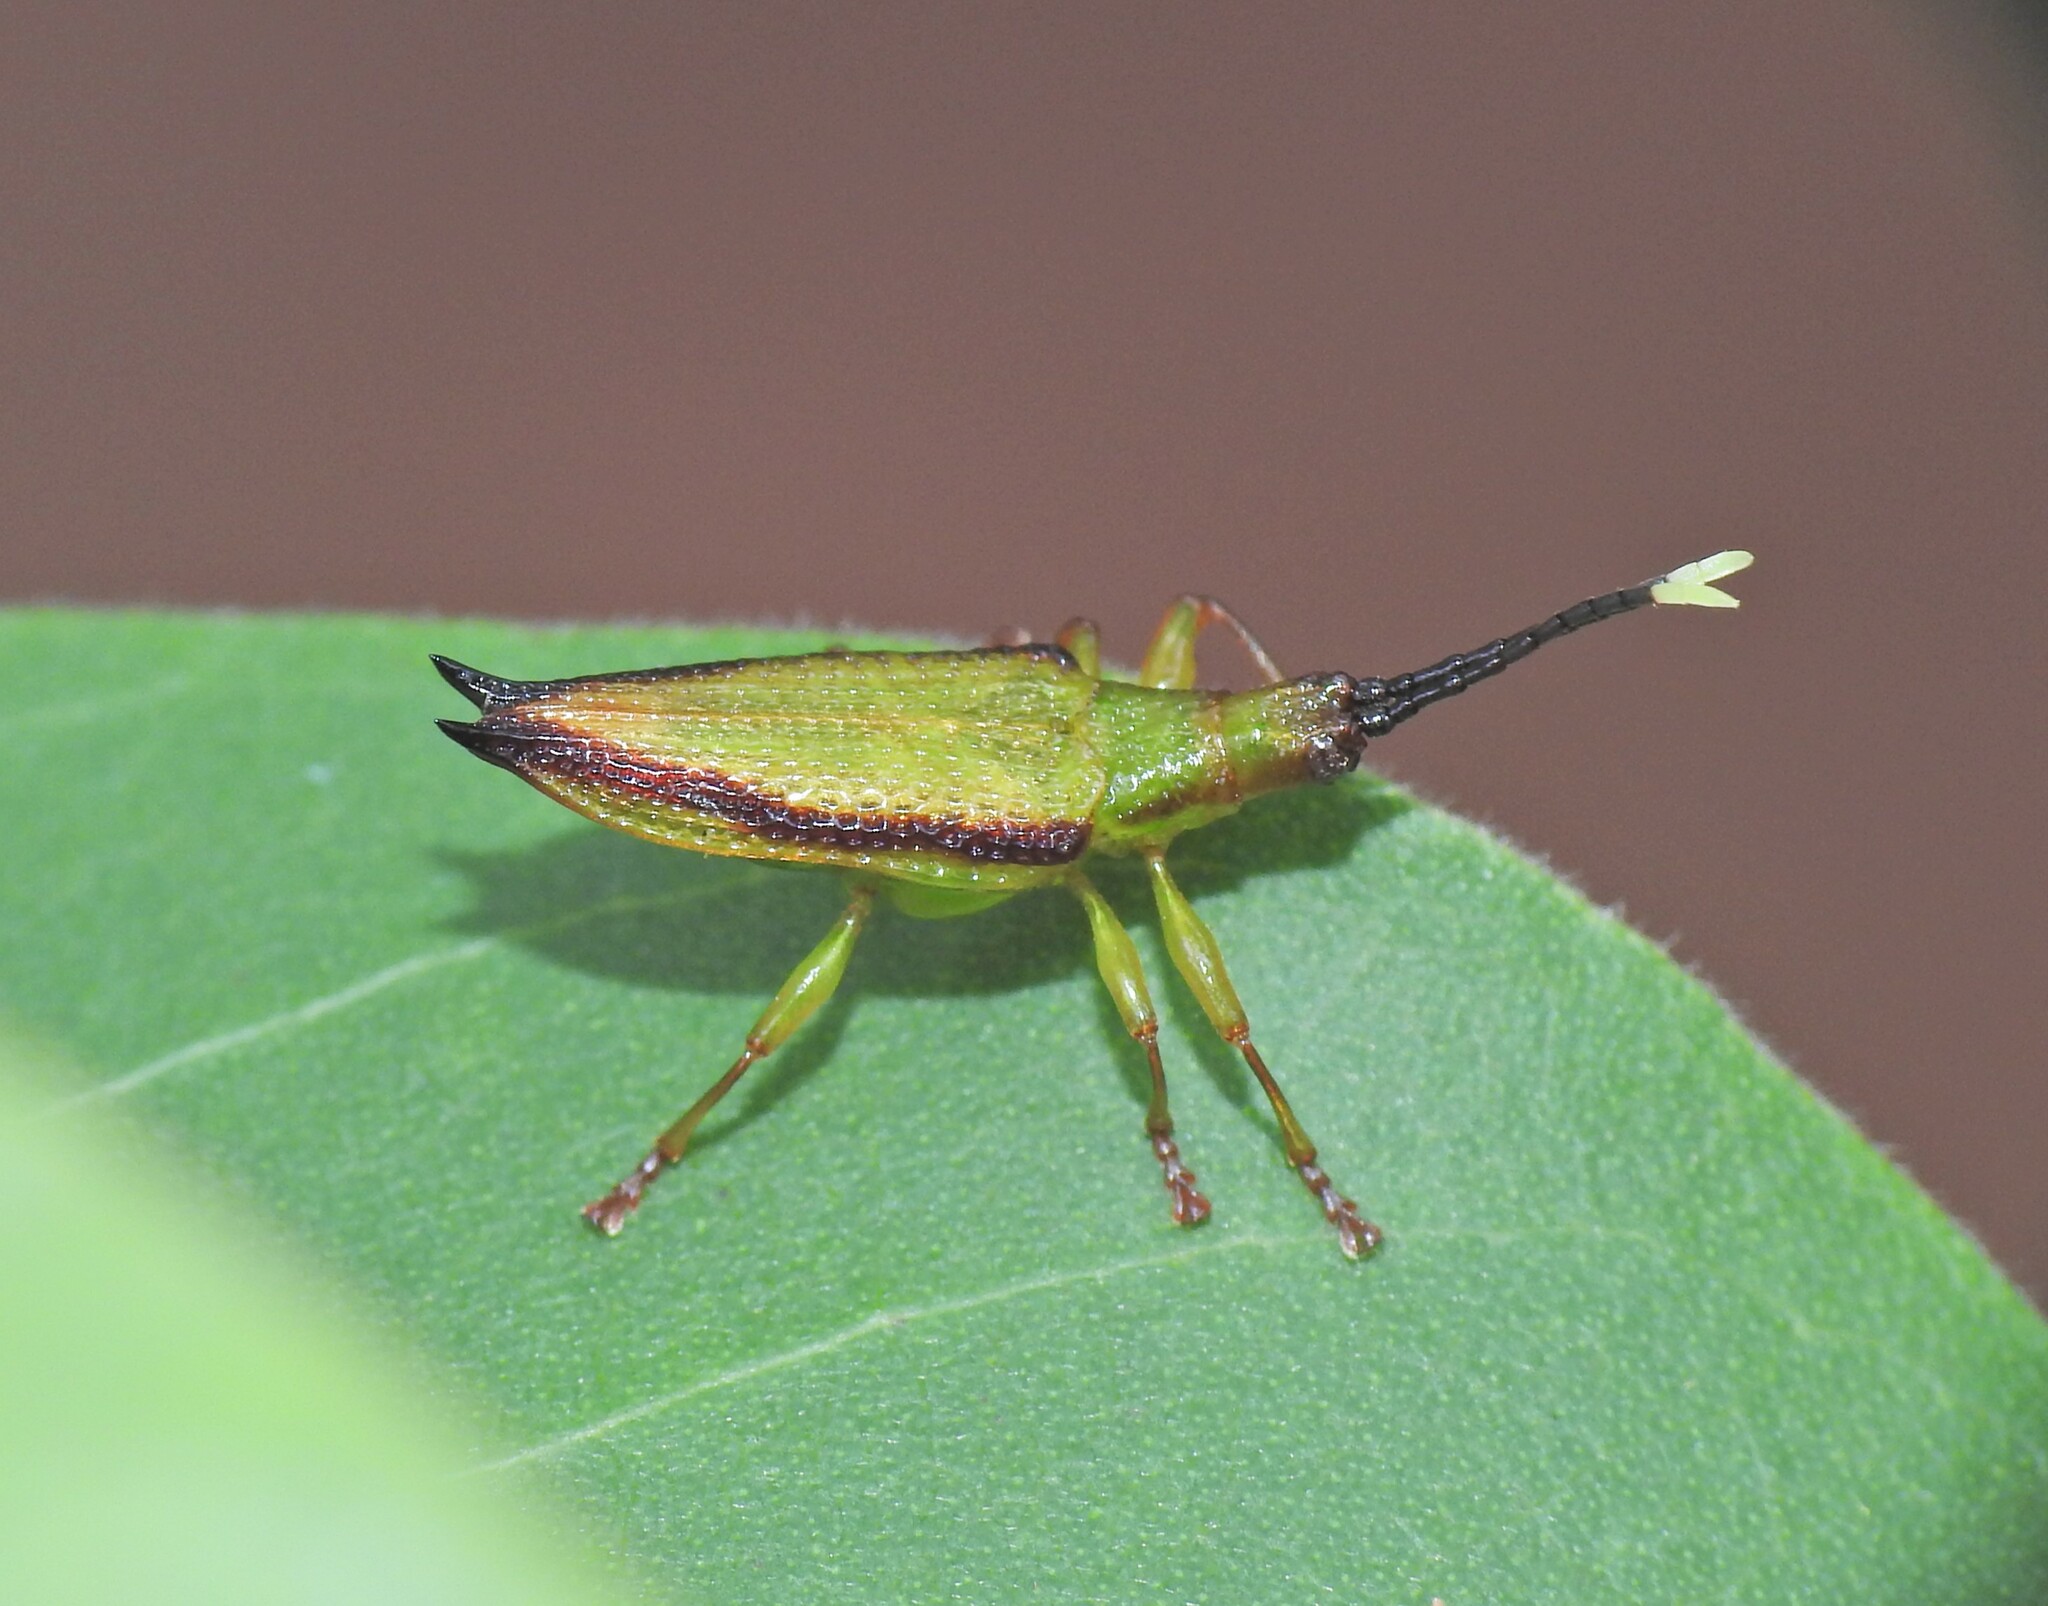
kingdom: Animalia
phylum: Arthropoda
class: Insecta
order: Coleoptera
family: Chrysomelidae
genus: Aproida
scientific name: Aproida balyi
